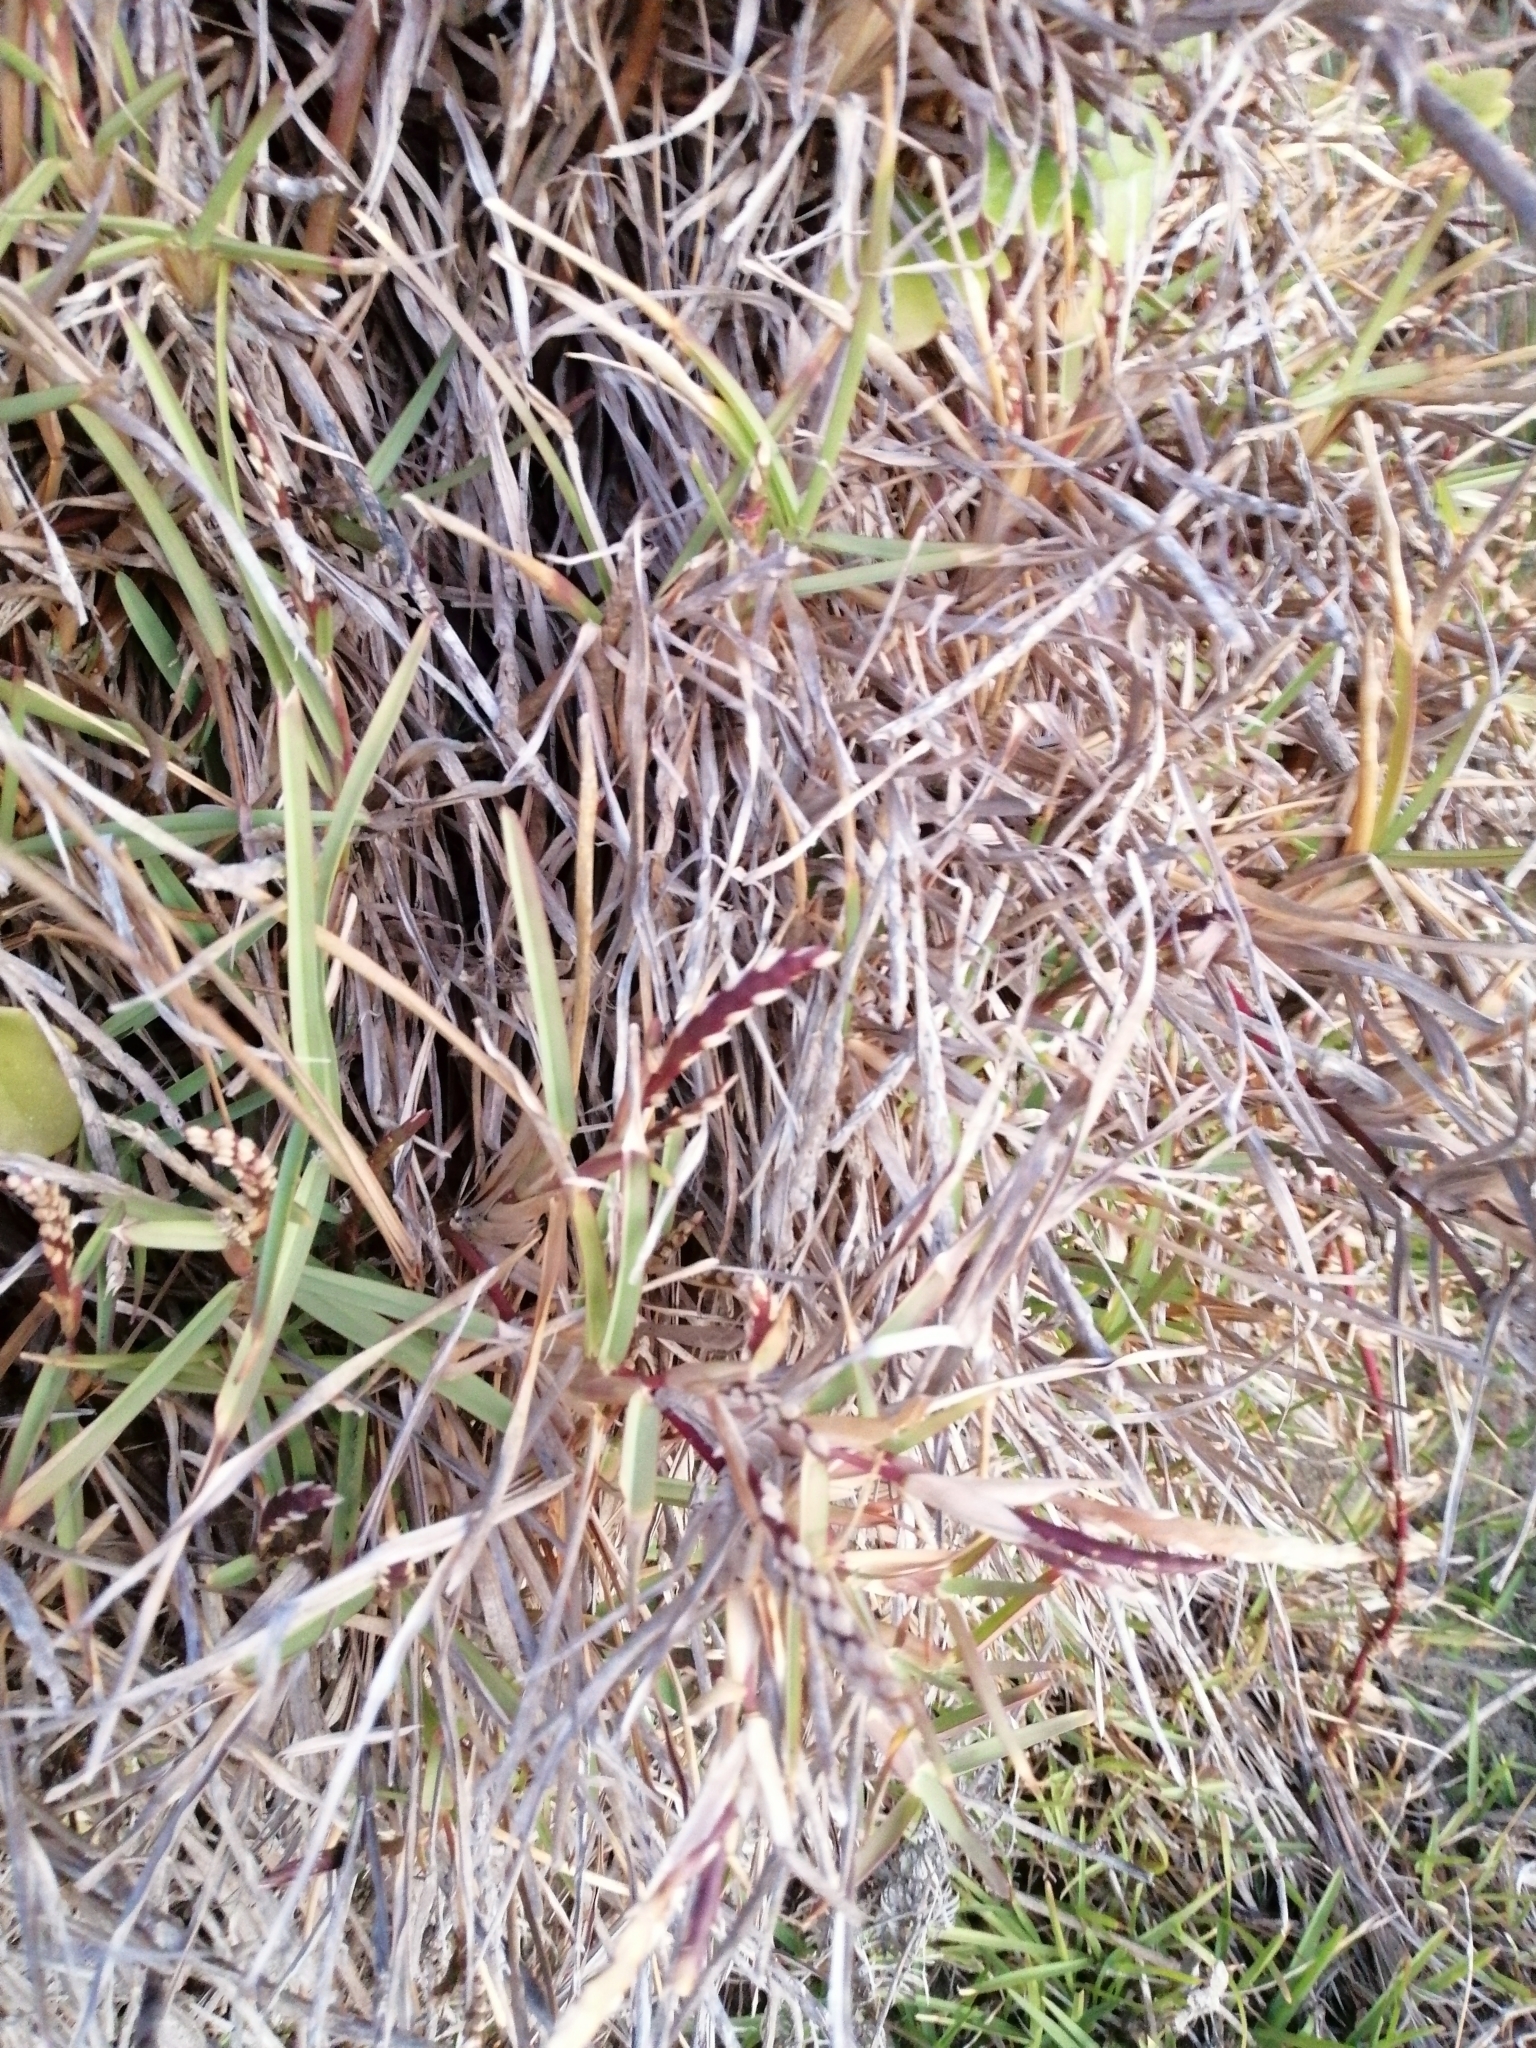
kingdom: Plantae
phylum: Tracheophyta
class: Liliopsida
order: Poales
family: Poaceae
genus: Stenotaphrum
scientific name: Stenotaphrum secundatum
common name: St. augustine grass
